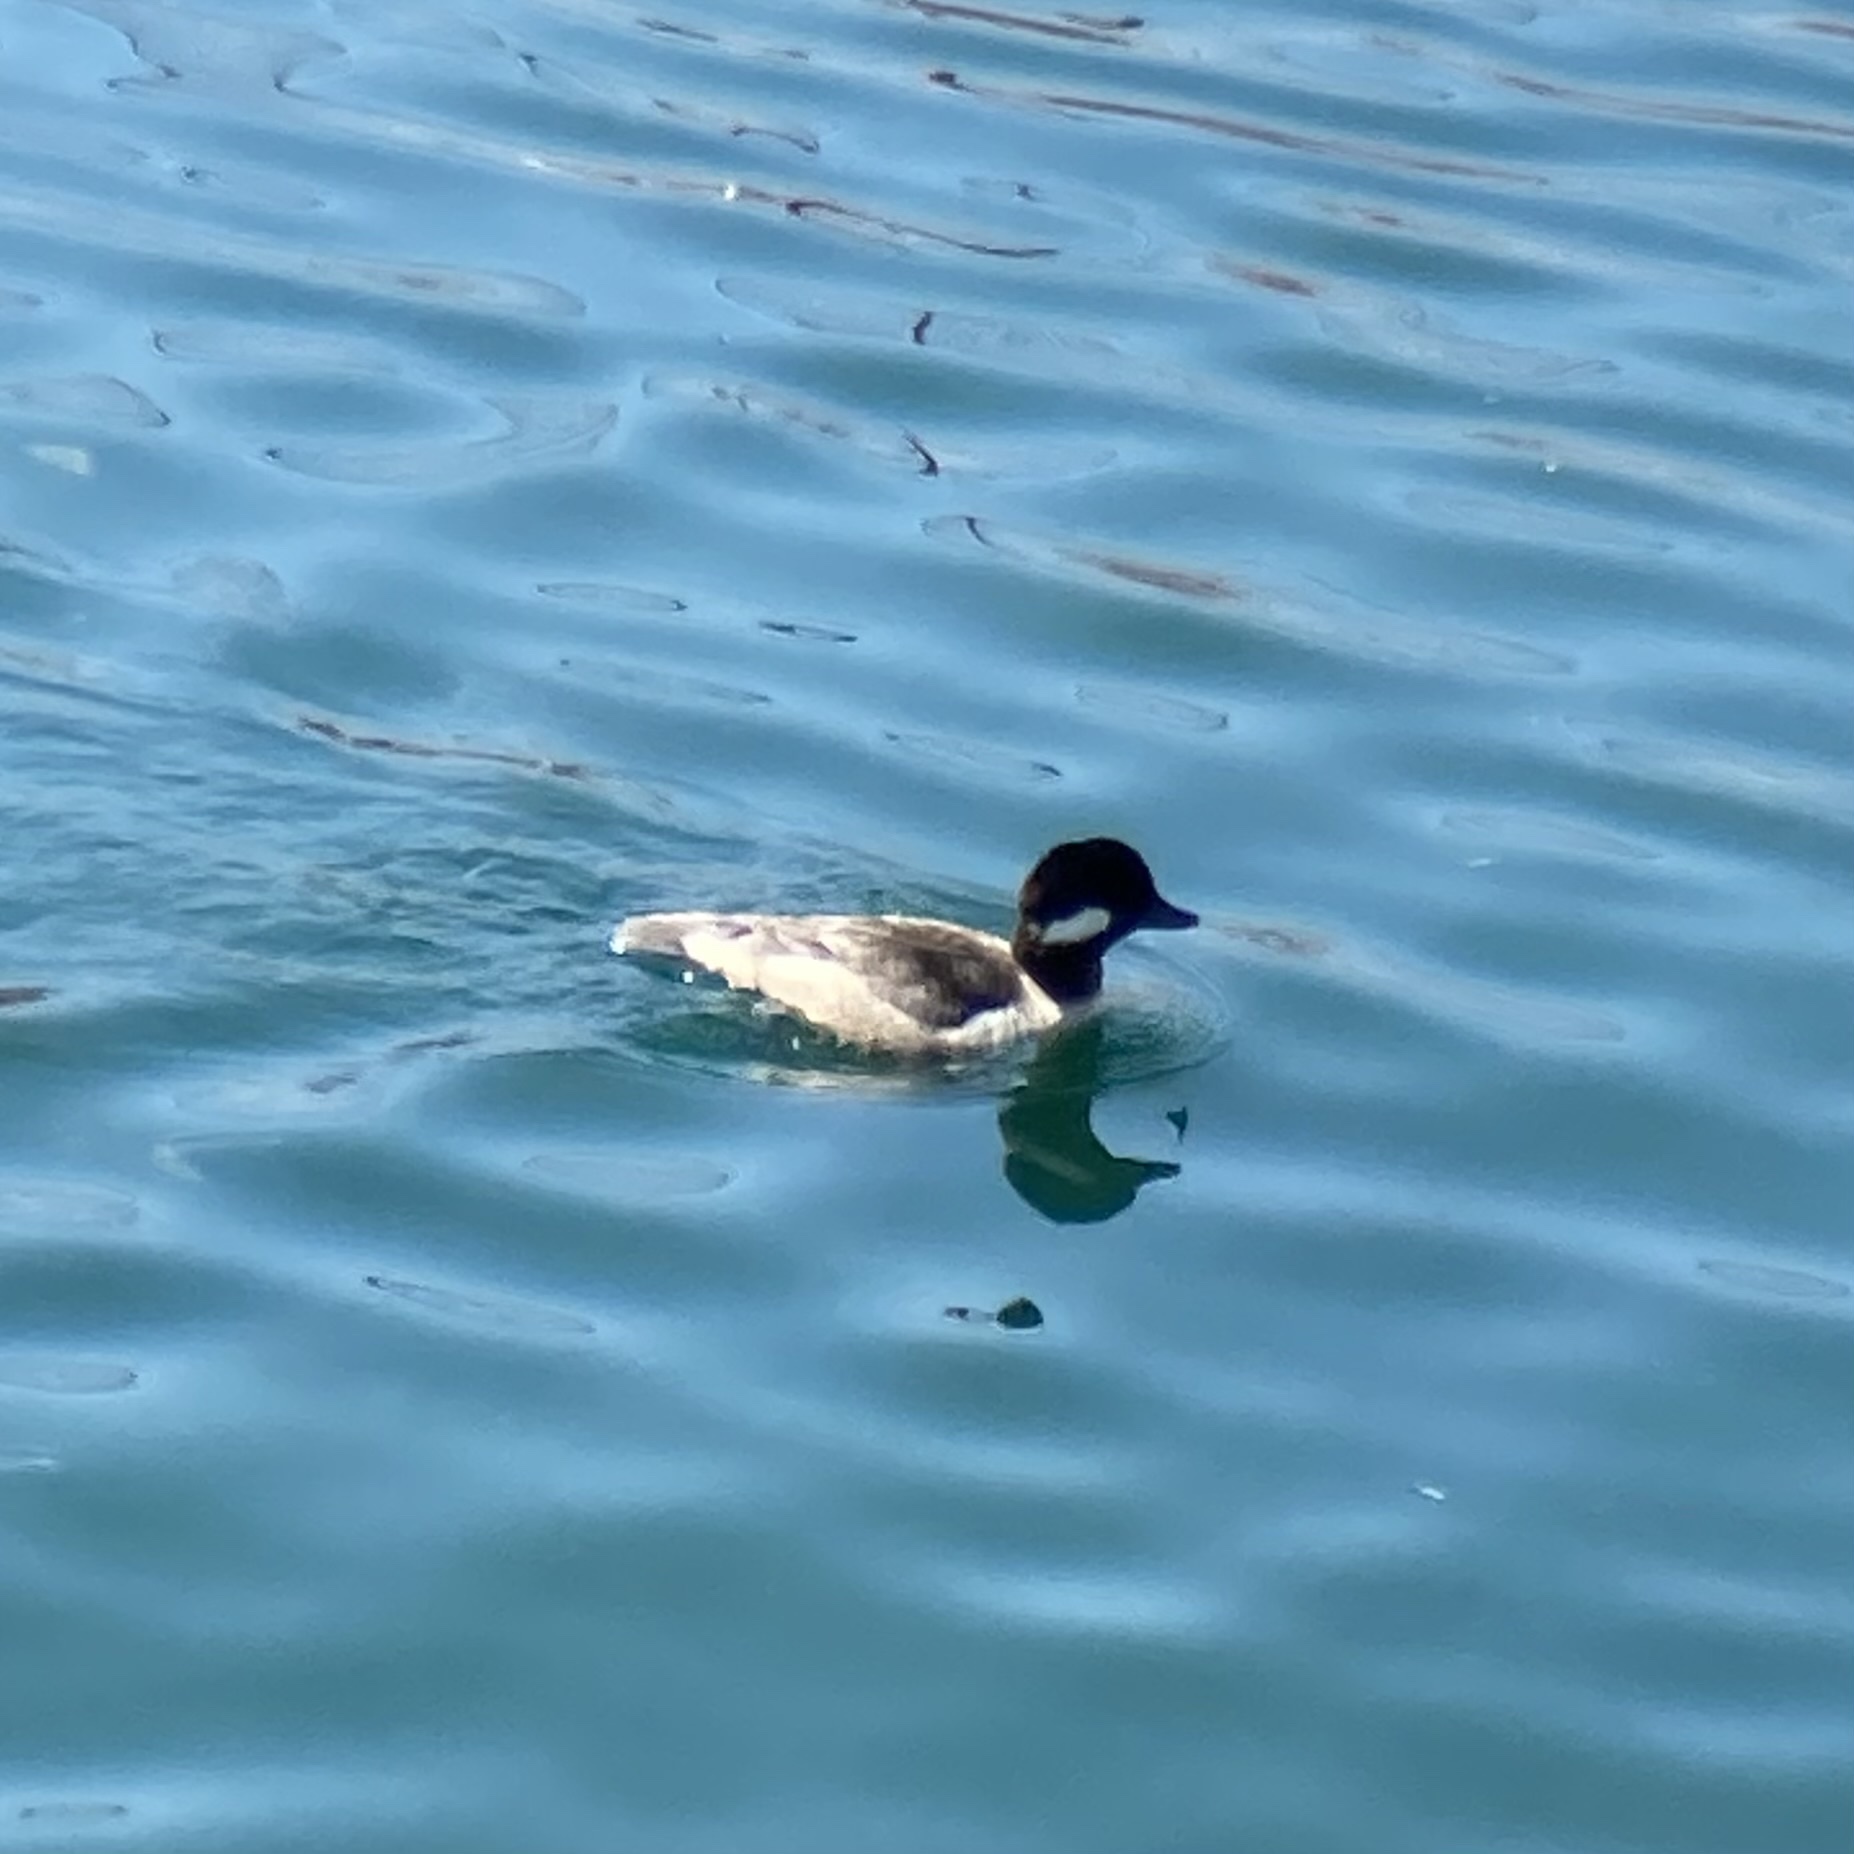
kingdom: Animalia
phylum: Chordata
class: Aves
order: Anseriformes
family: Anatidae
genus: Bucephala
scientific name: Bucephala albeola
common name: Bufflehead
